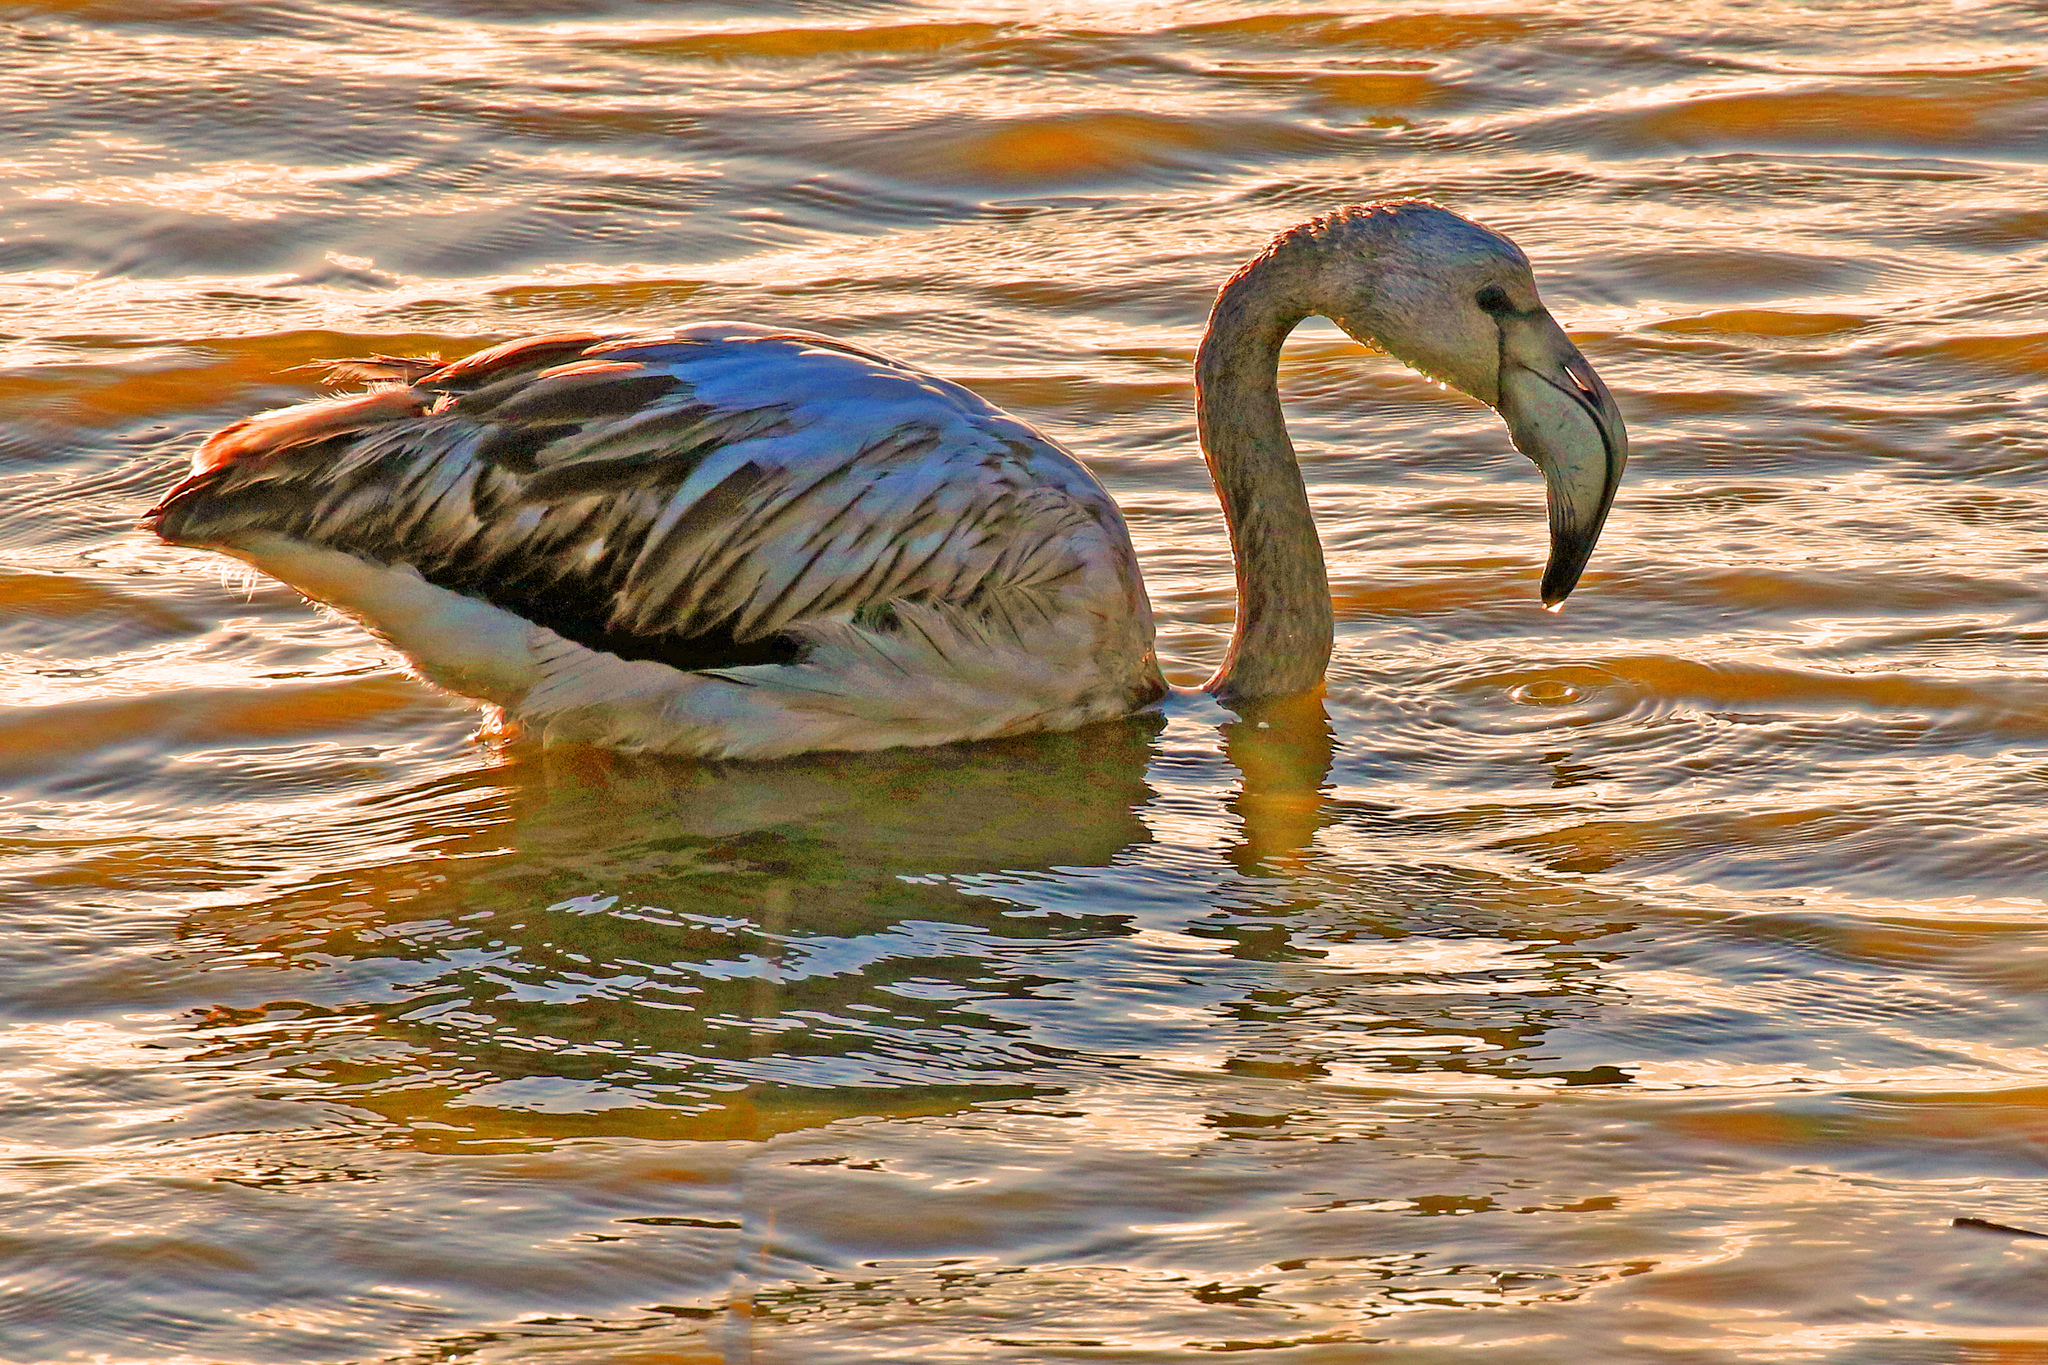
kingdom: Animalia
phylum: Chordata
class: Aves
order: Phoenicopteriformes
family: Phoenicopteridae
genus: Phoenicopterus
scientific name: Phoenicopterus roseus
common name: Greater flamingo
